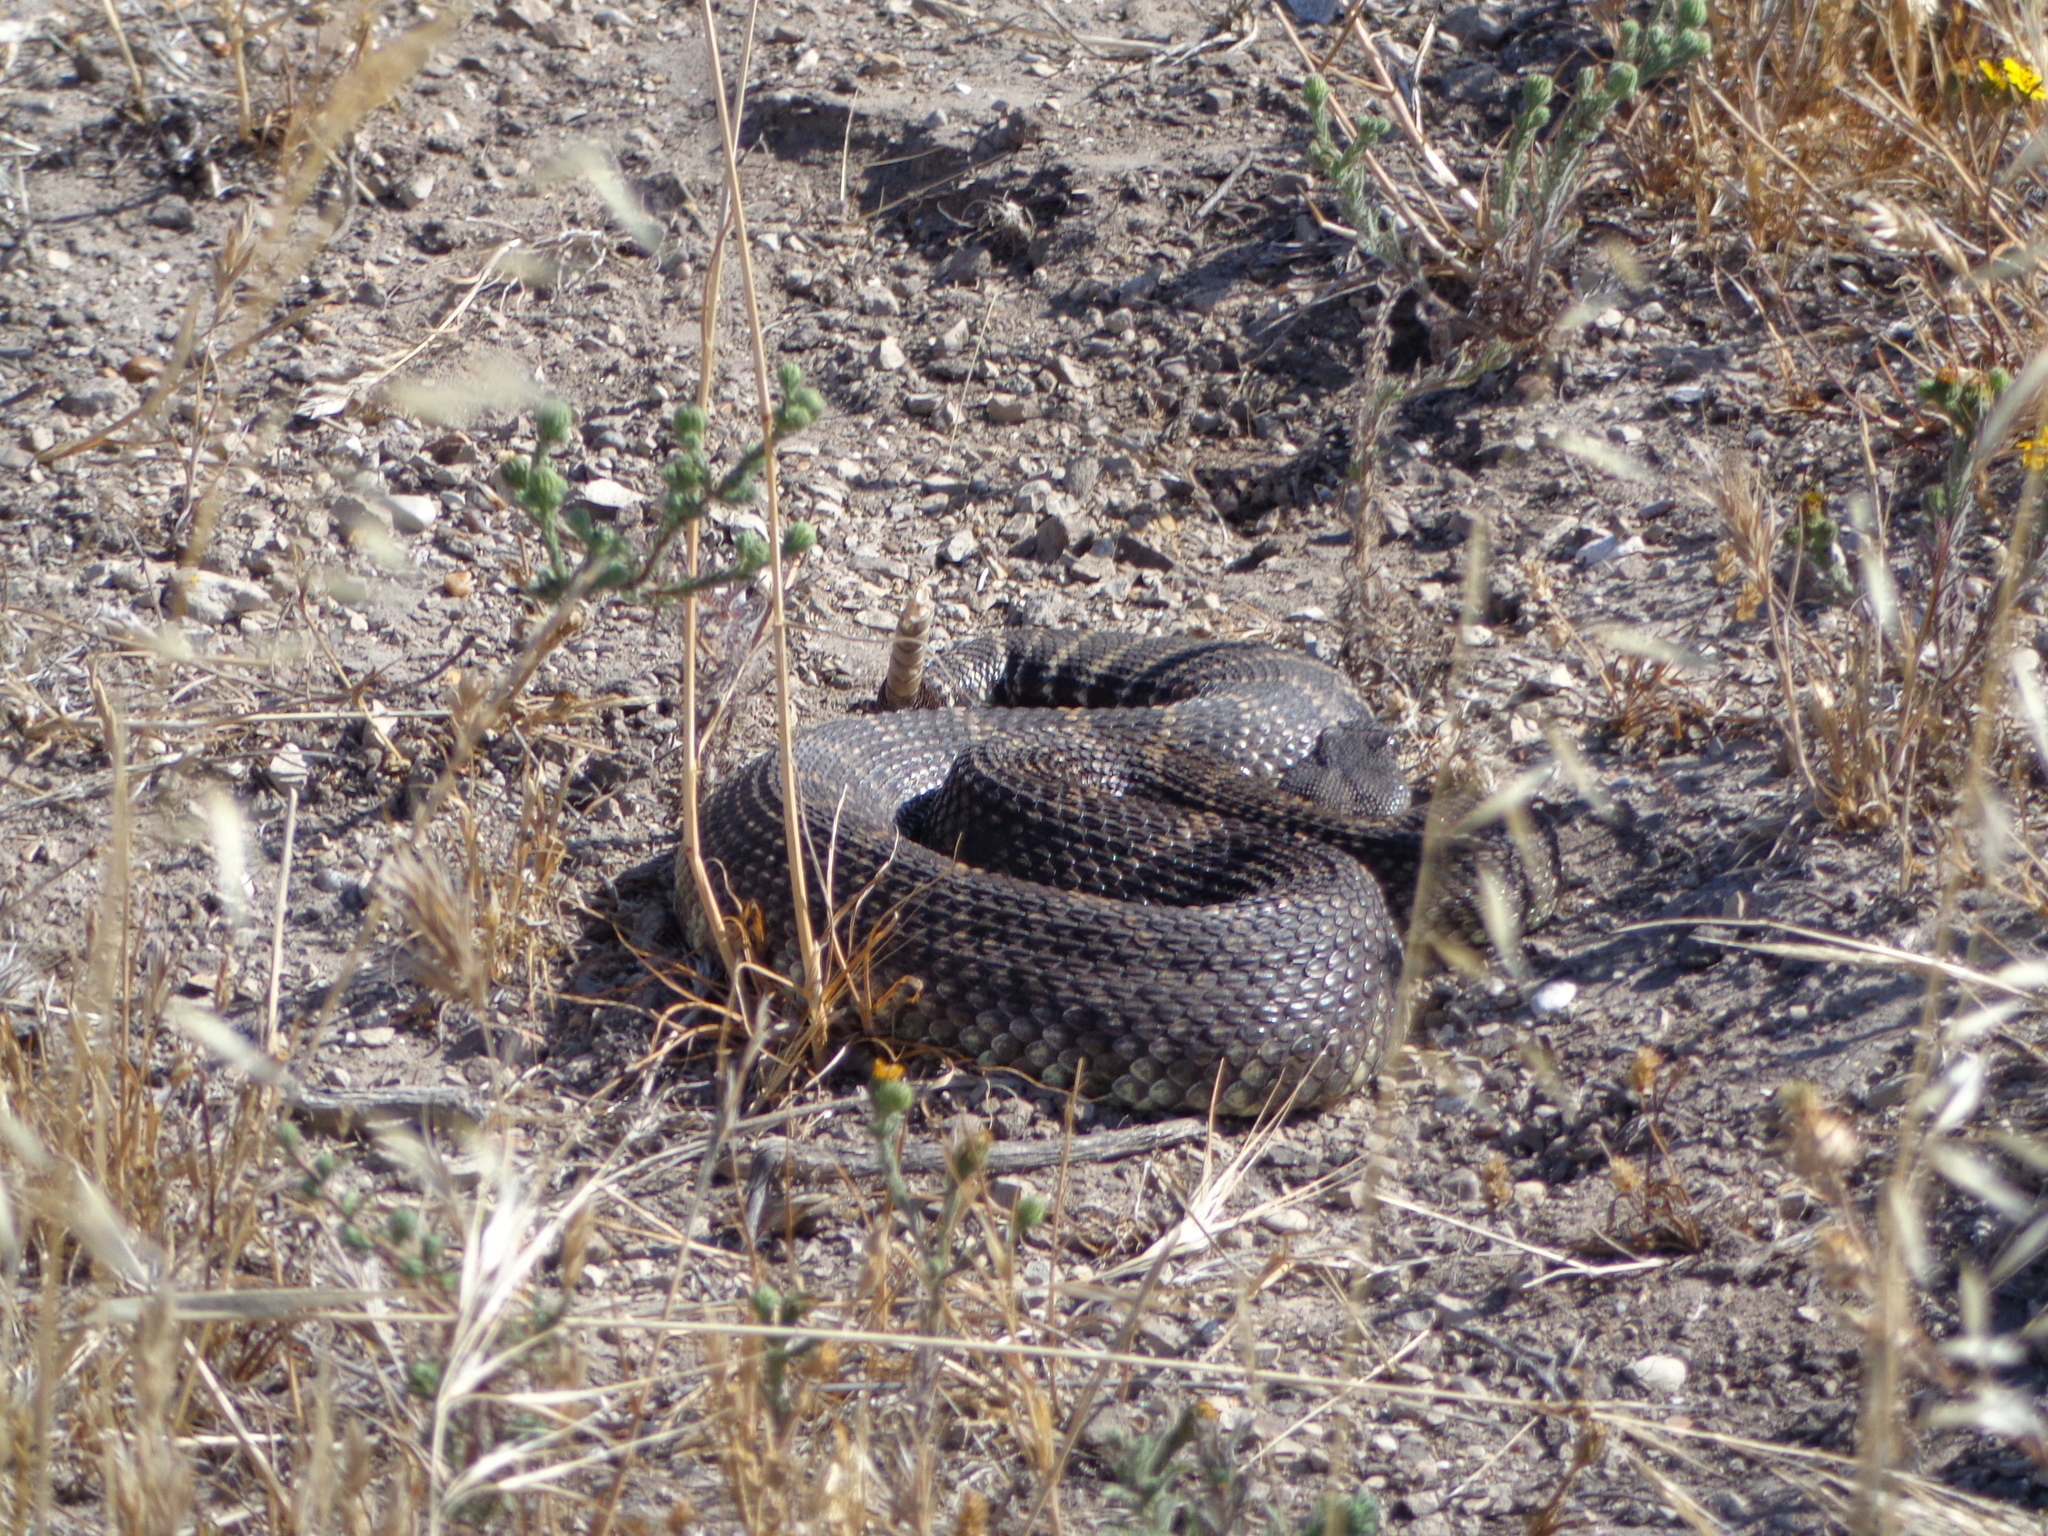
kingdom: Animalia
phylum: Chordata
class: Squamata
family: Viperidae
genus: Crotalus
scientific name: Crotalus oreganus
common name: Abyssus
